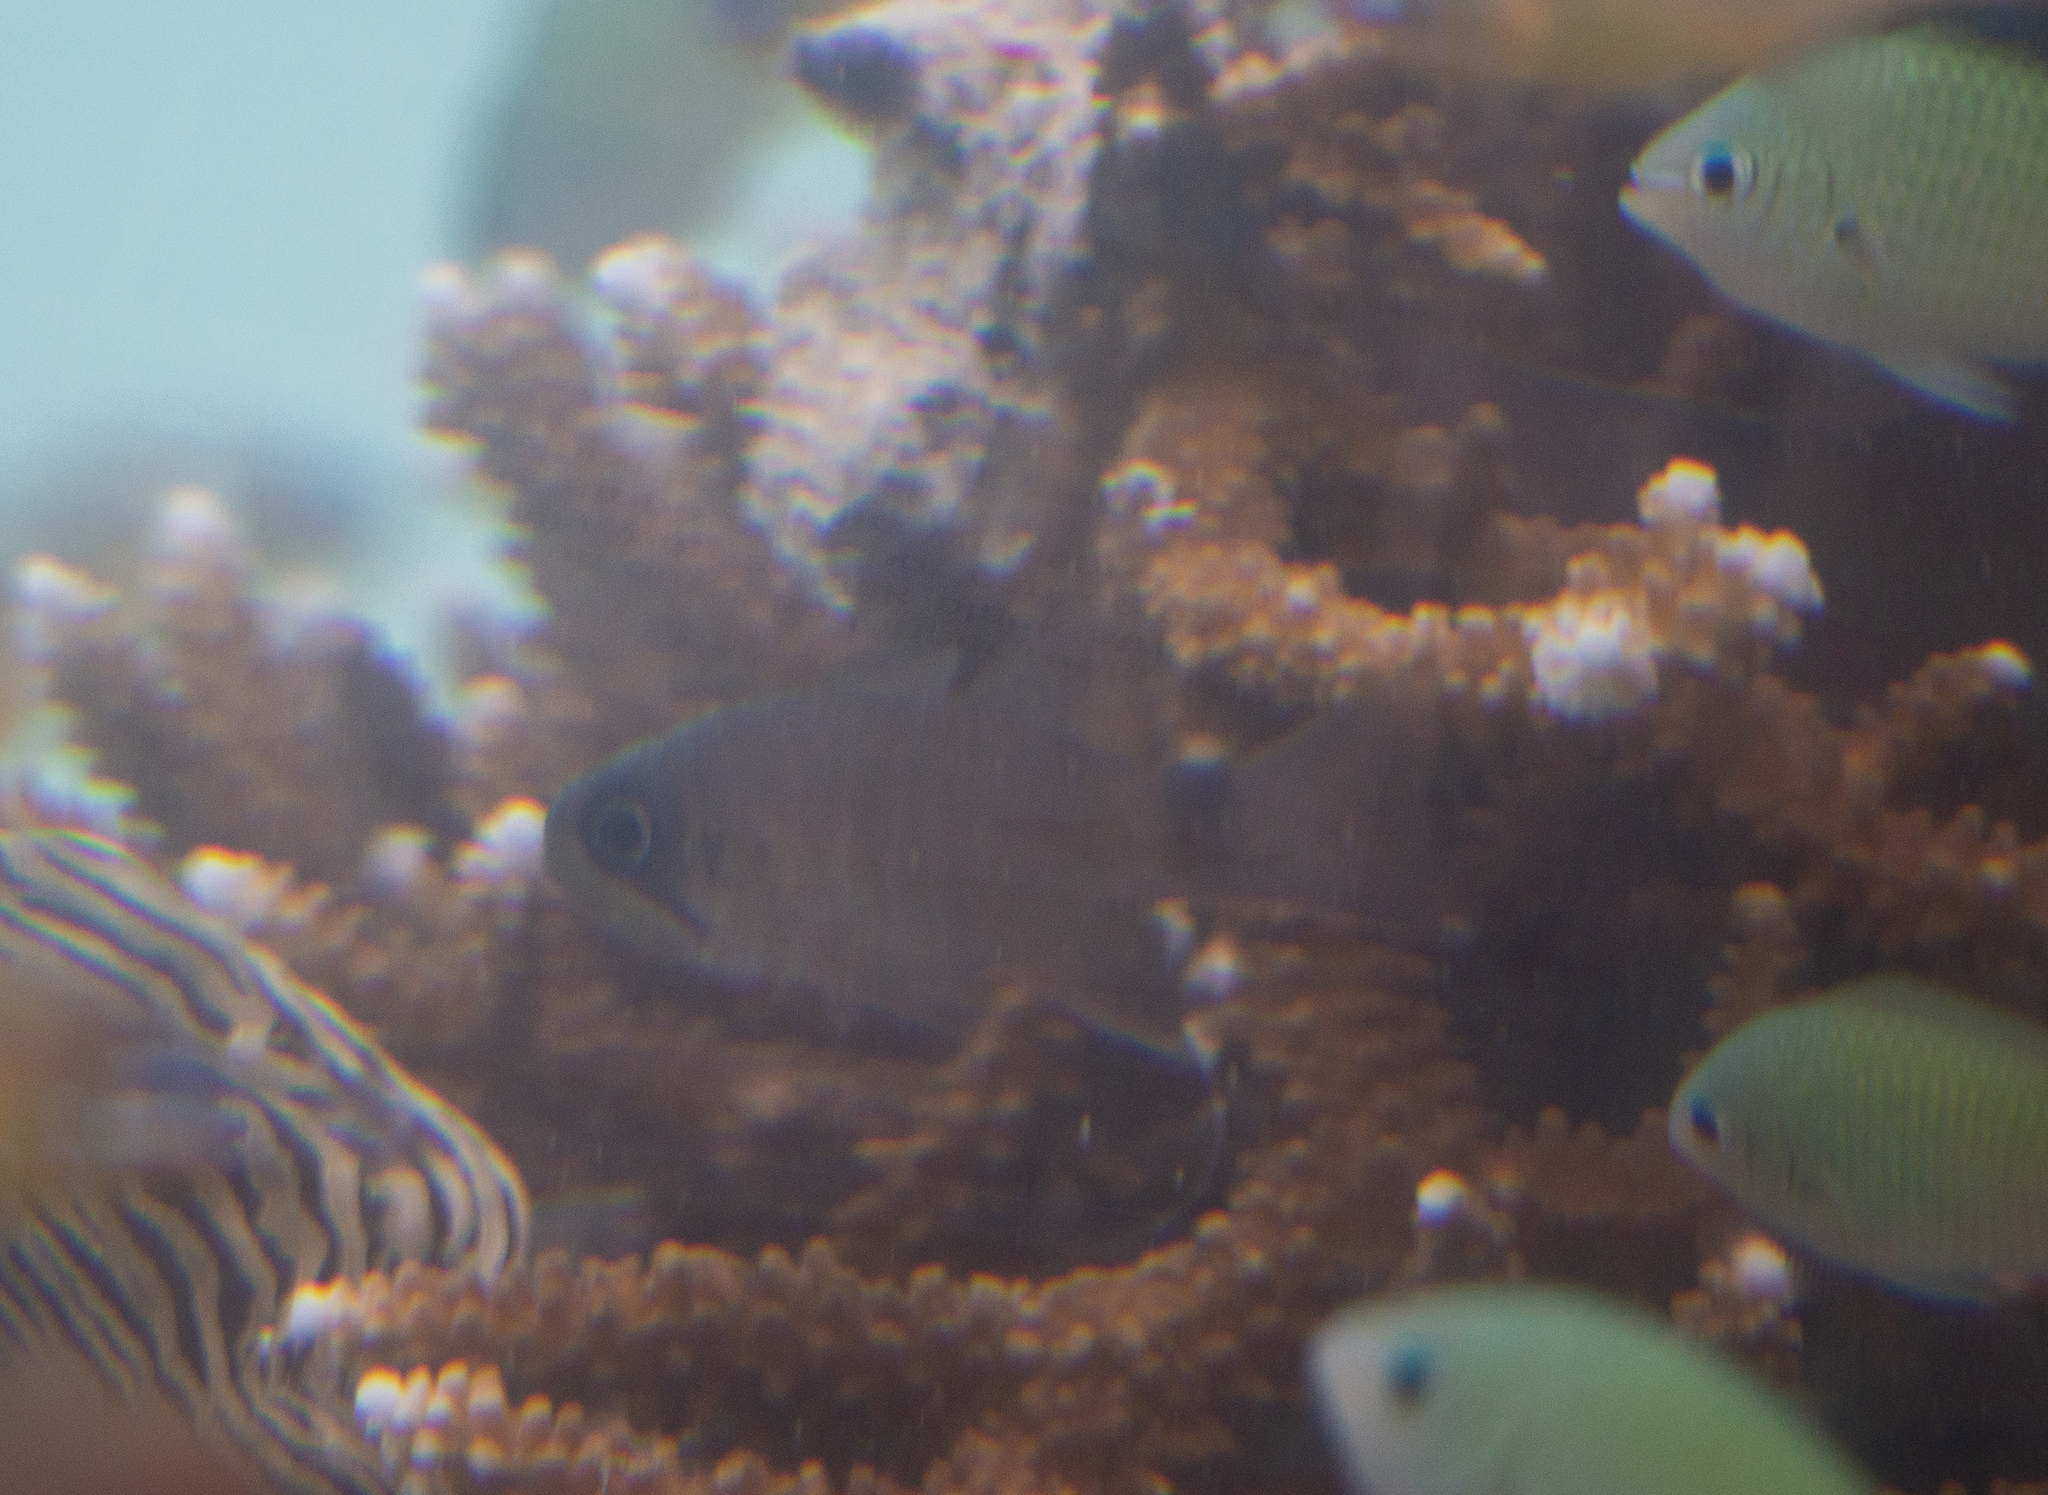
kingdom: Animalia
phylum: Chordata
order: Perciformes
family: Apogonidae
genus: Nectamia
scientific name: Nectamia savayensis
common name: Samoan cardinalfish
